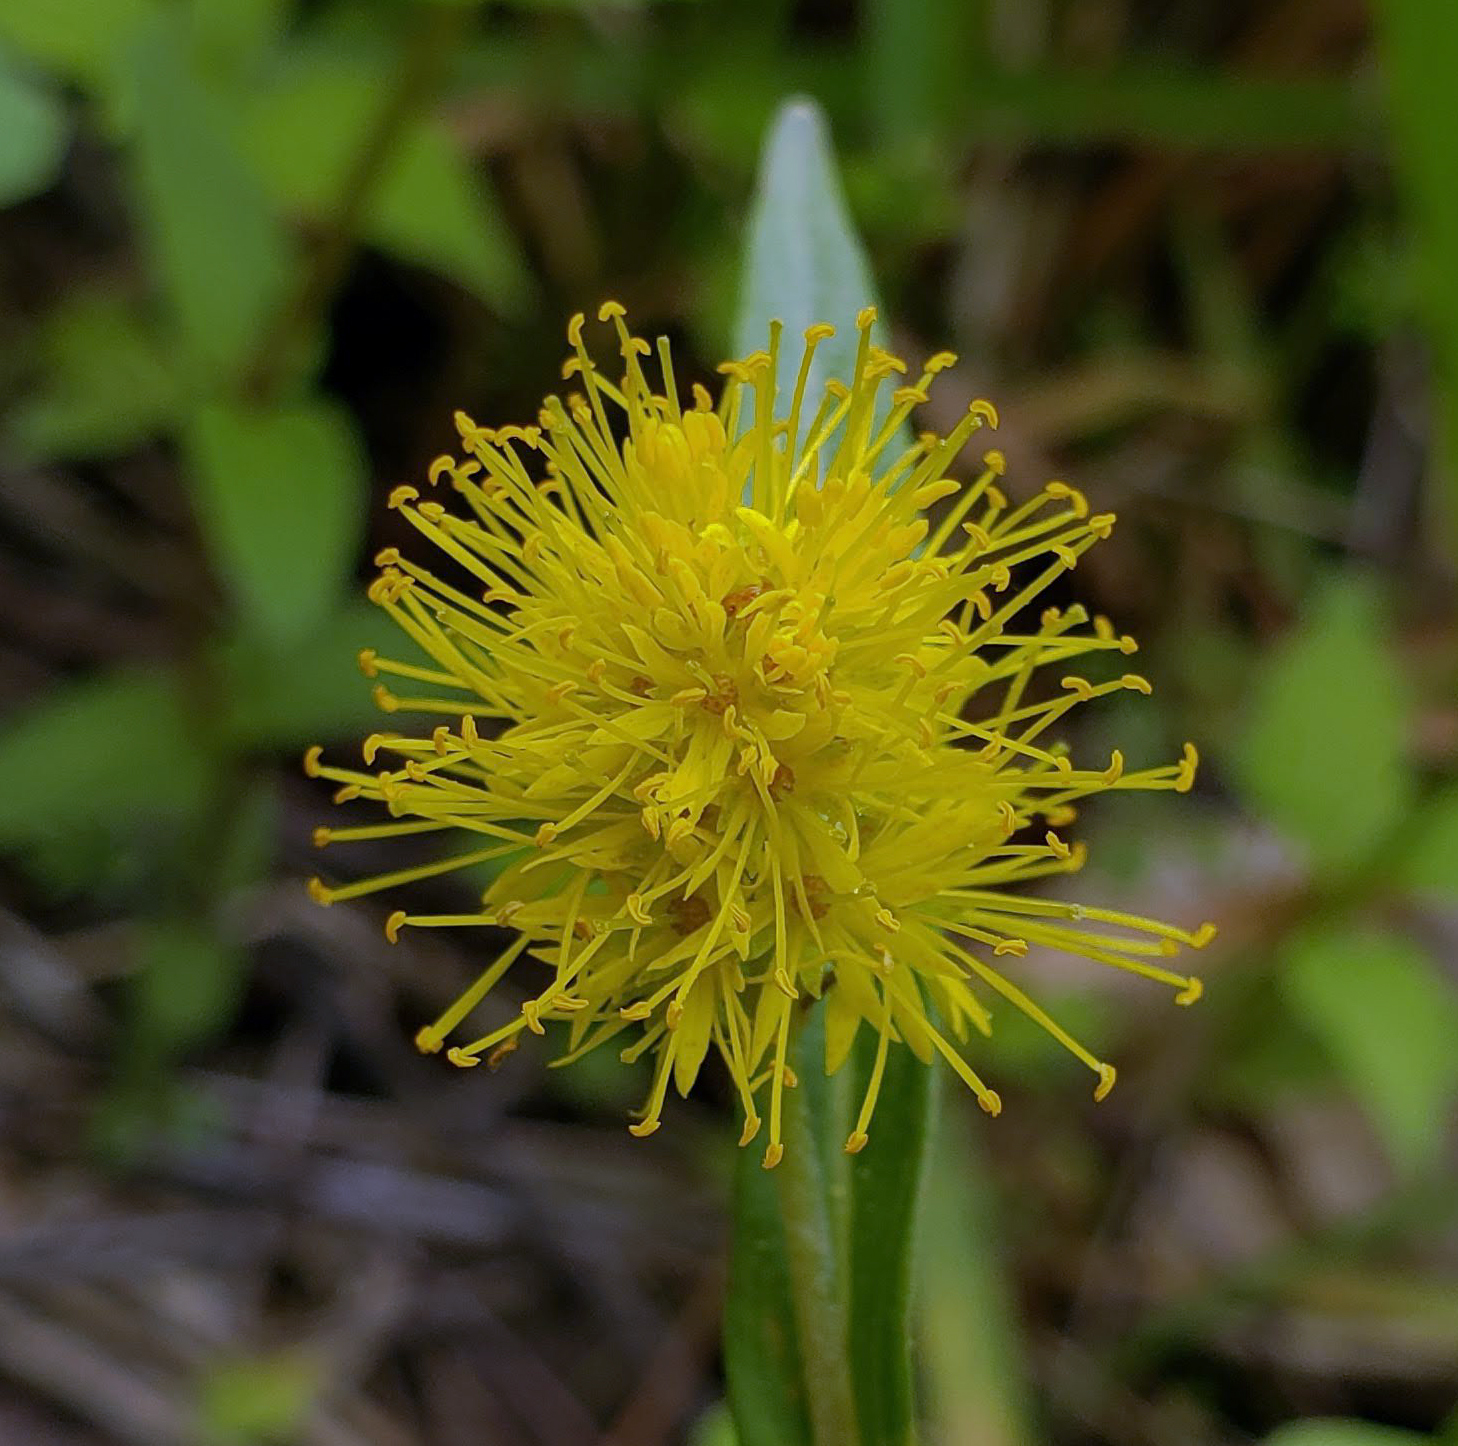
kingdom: Plantae
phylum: Tracheophyta
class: Magnoliopsida
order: Ericales
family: Primulaceae
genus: Lysimachia
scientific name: Lysimachia thyrsiflora
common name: Tufted loosestrife
